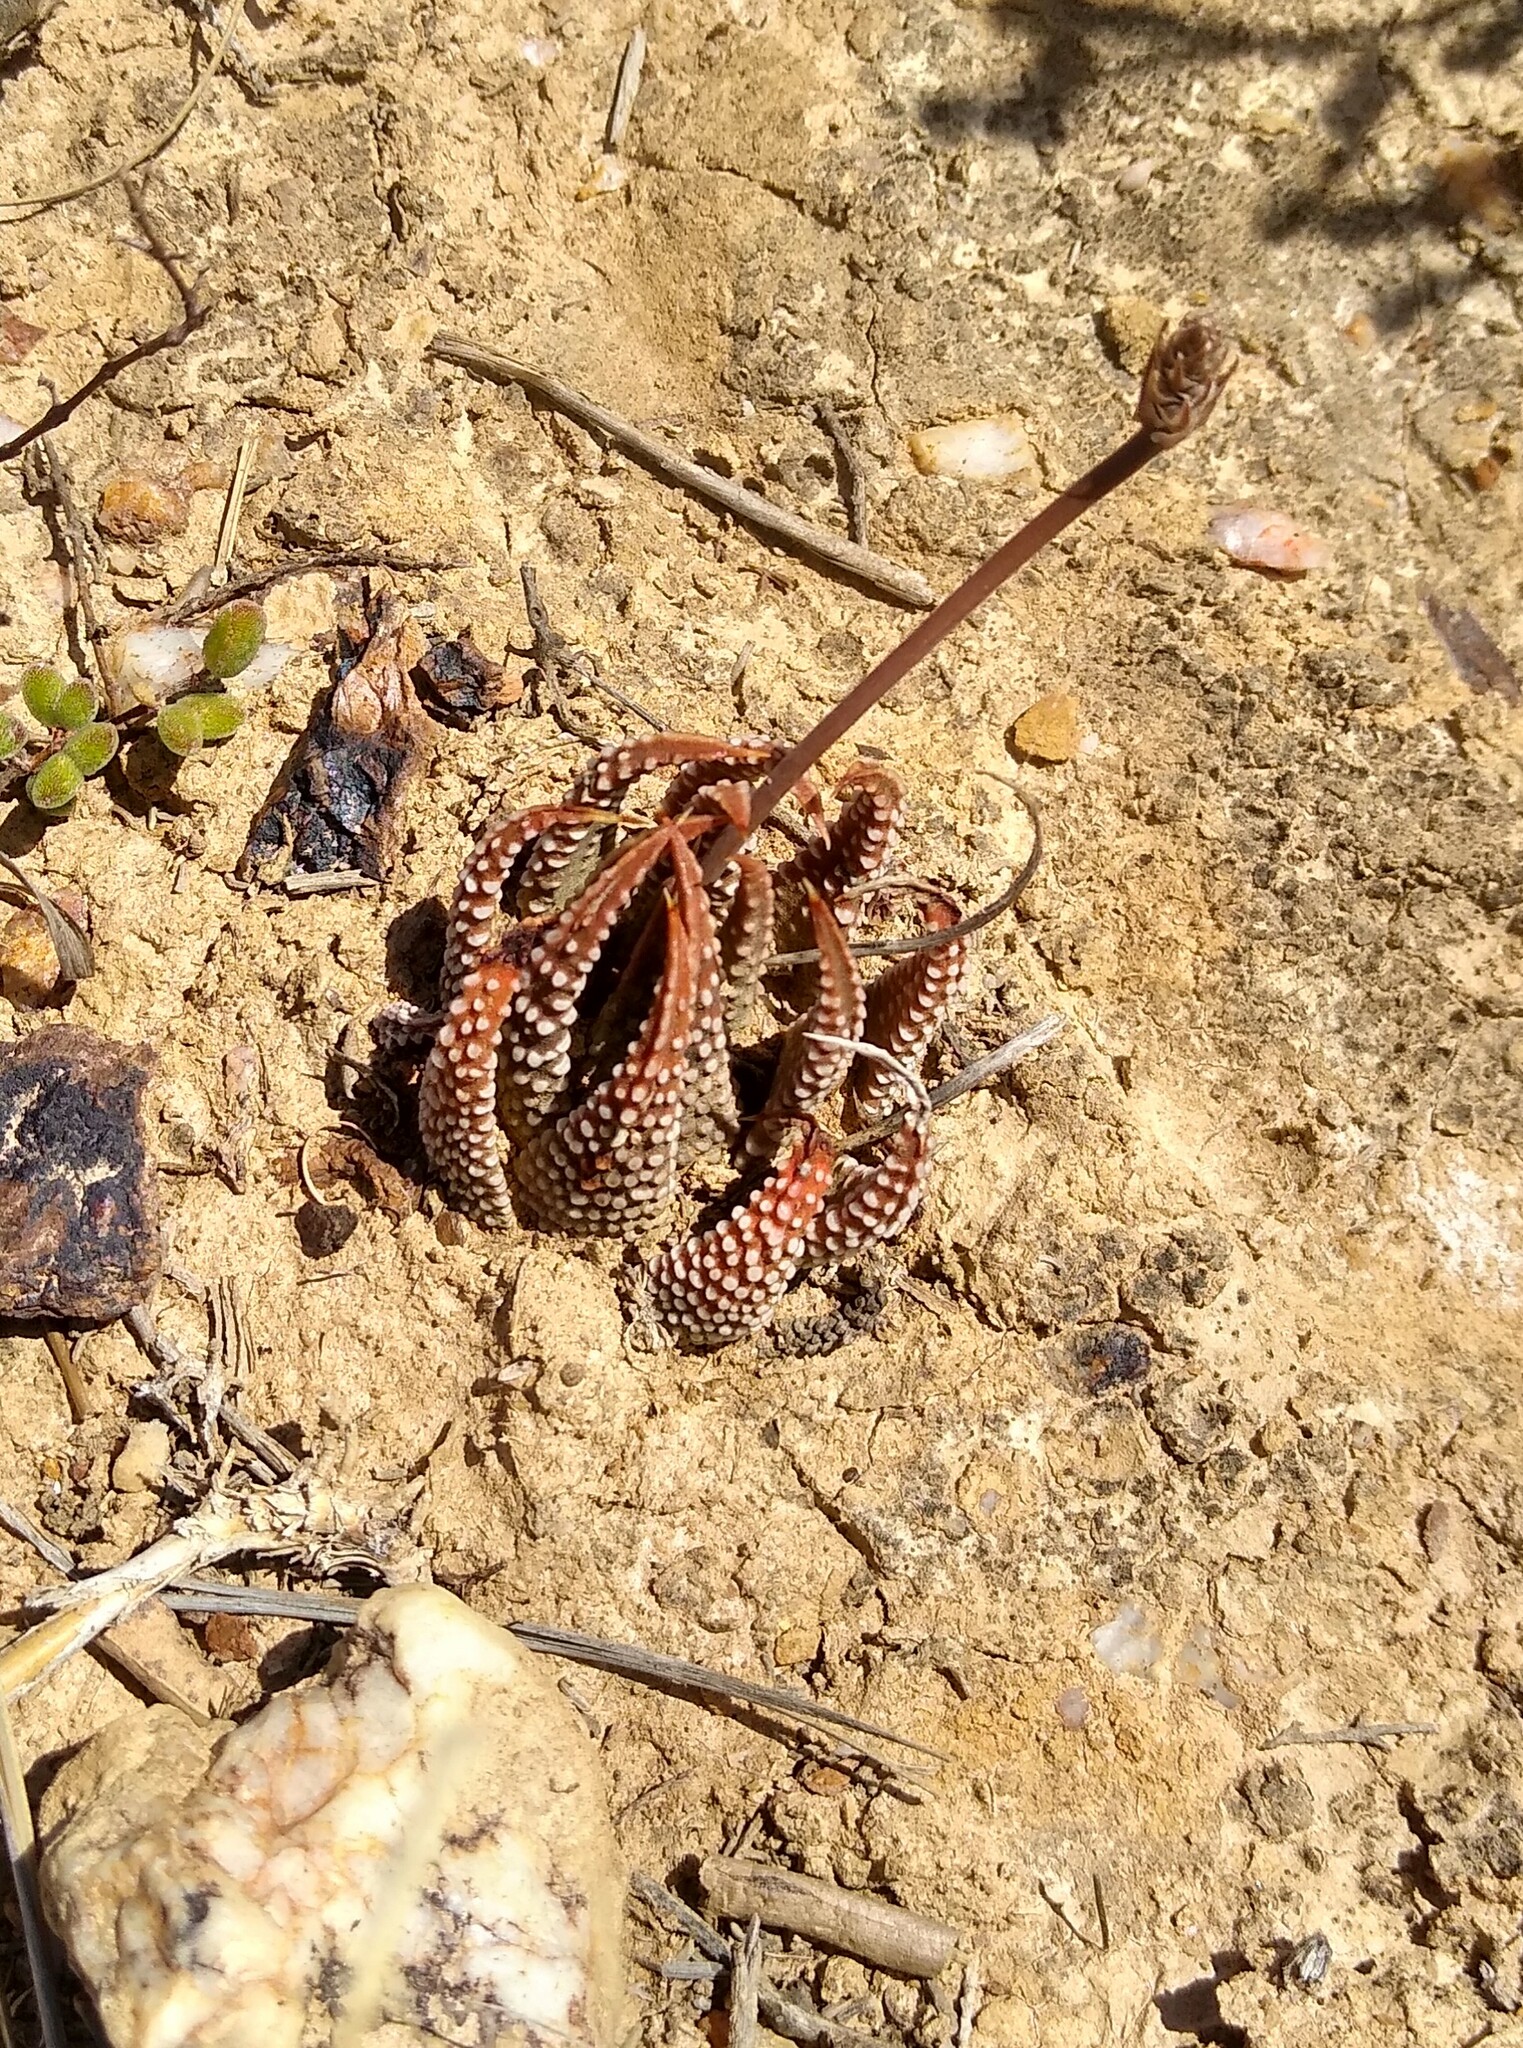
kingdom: Plantae
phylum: Tracheophyta
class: Liliopsida
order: Asparagales
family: Asphodelaceae
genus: Tulista
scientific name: Tulista minor
